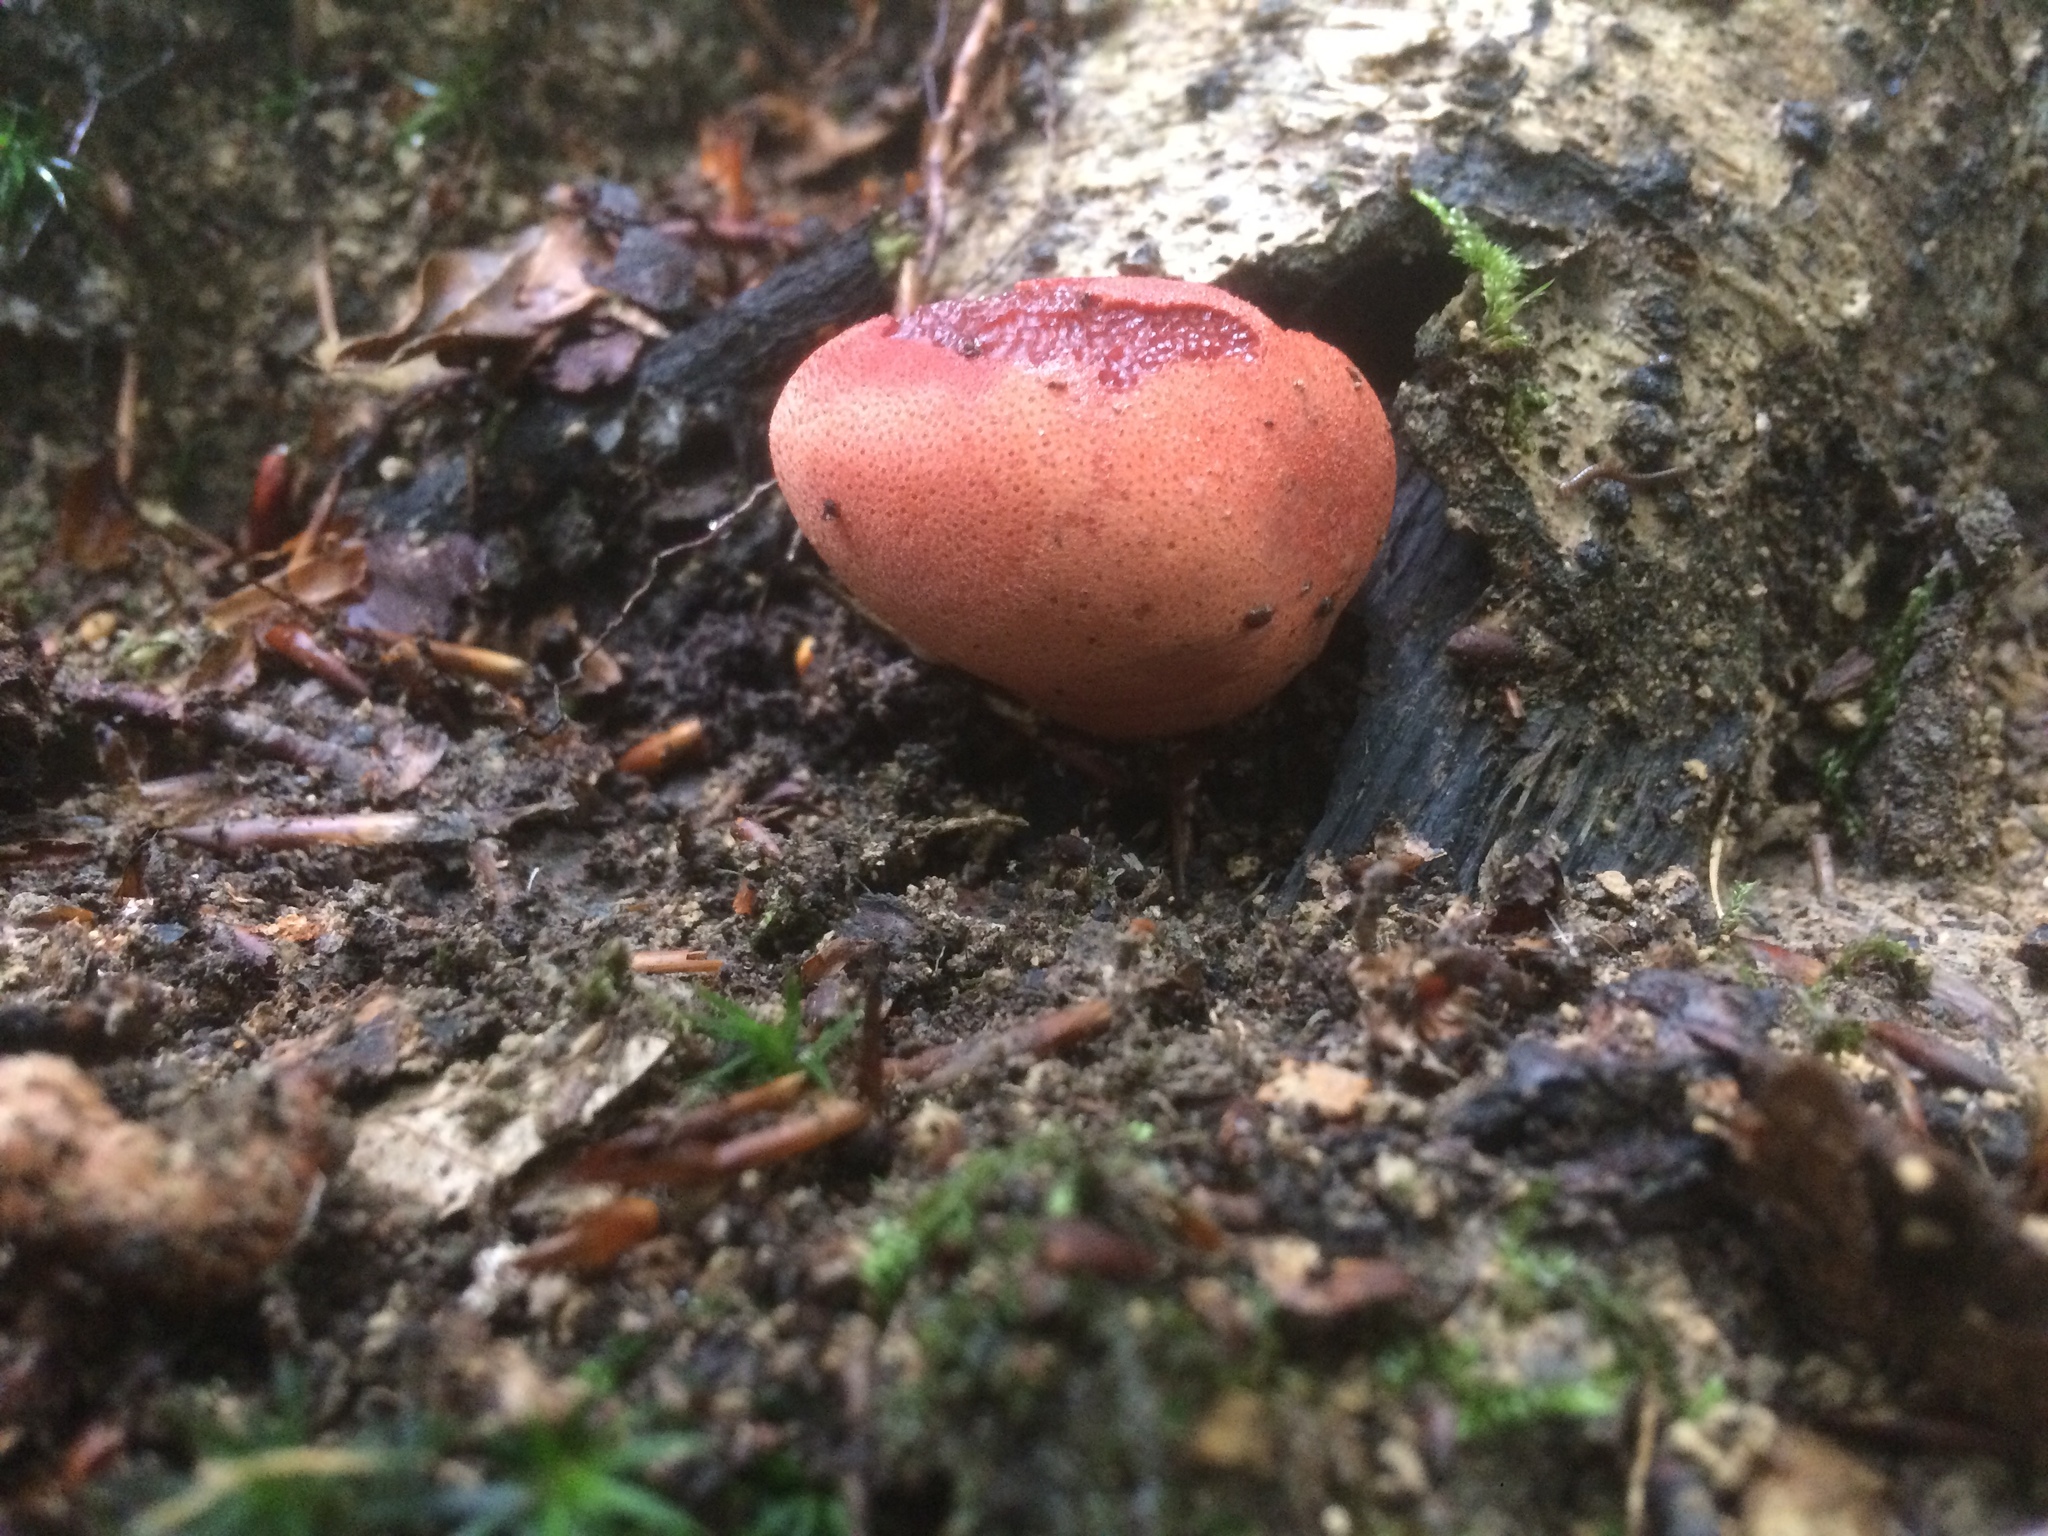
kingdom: Fungi
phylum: Basidiomycota
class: Agaricomycetes
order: Agaricales
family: Fistulinaceae
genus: Fistulina
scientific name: Fistulina hepatica
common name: Beef-steak fungus
